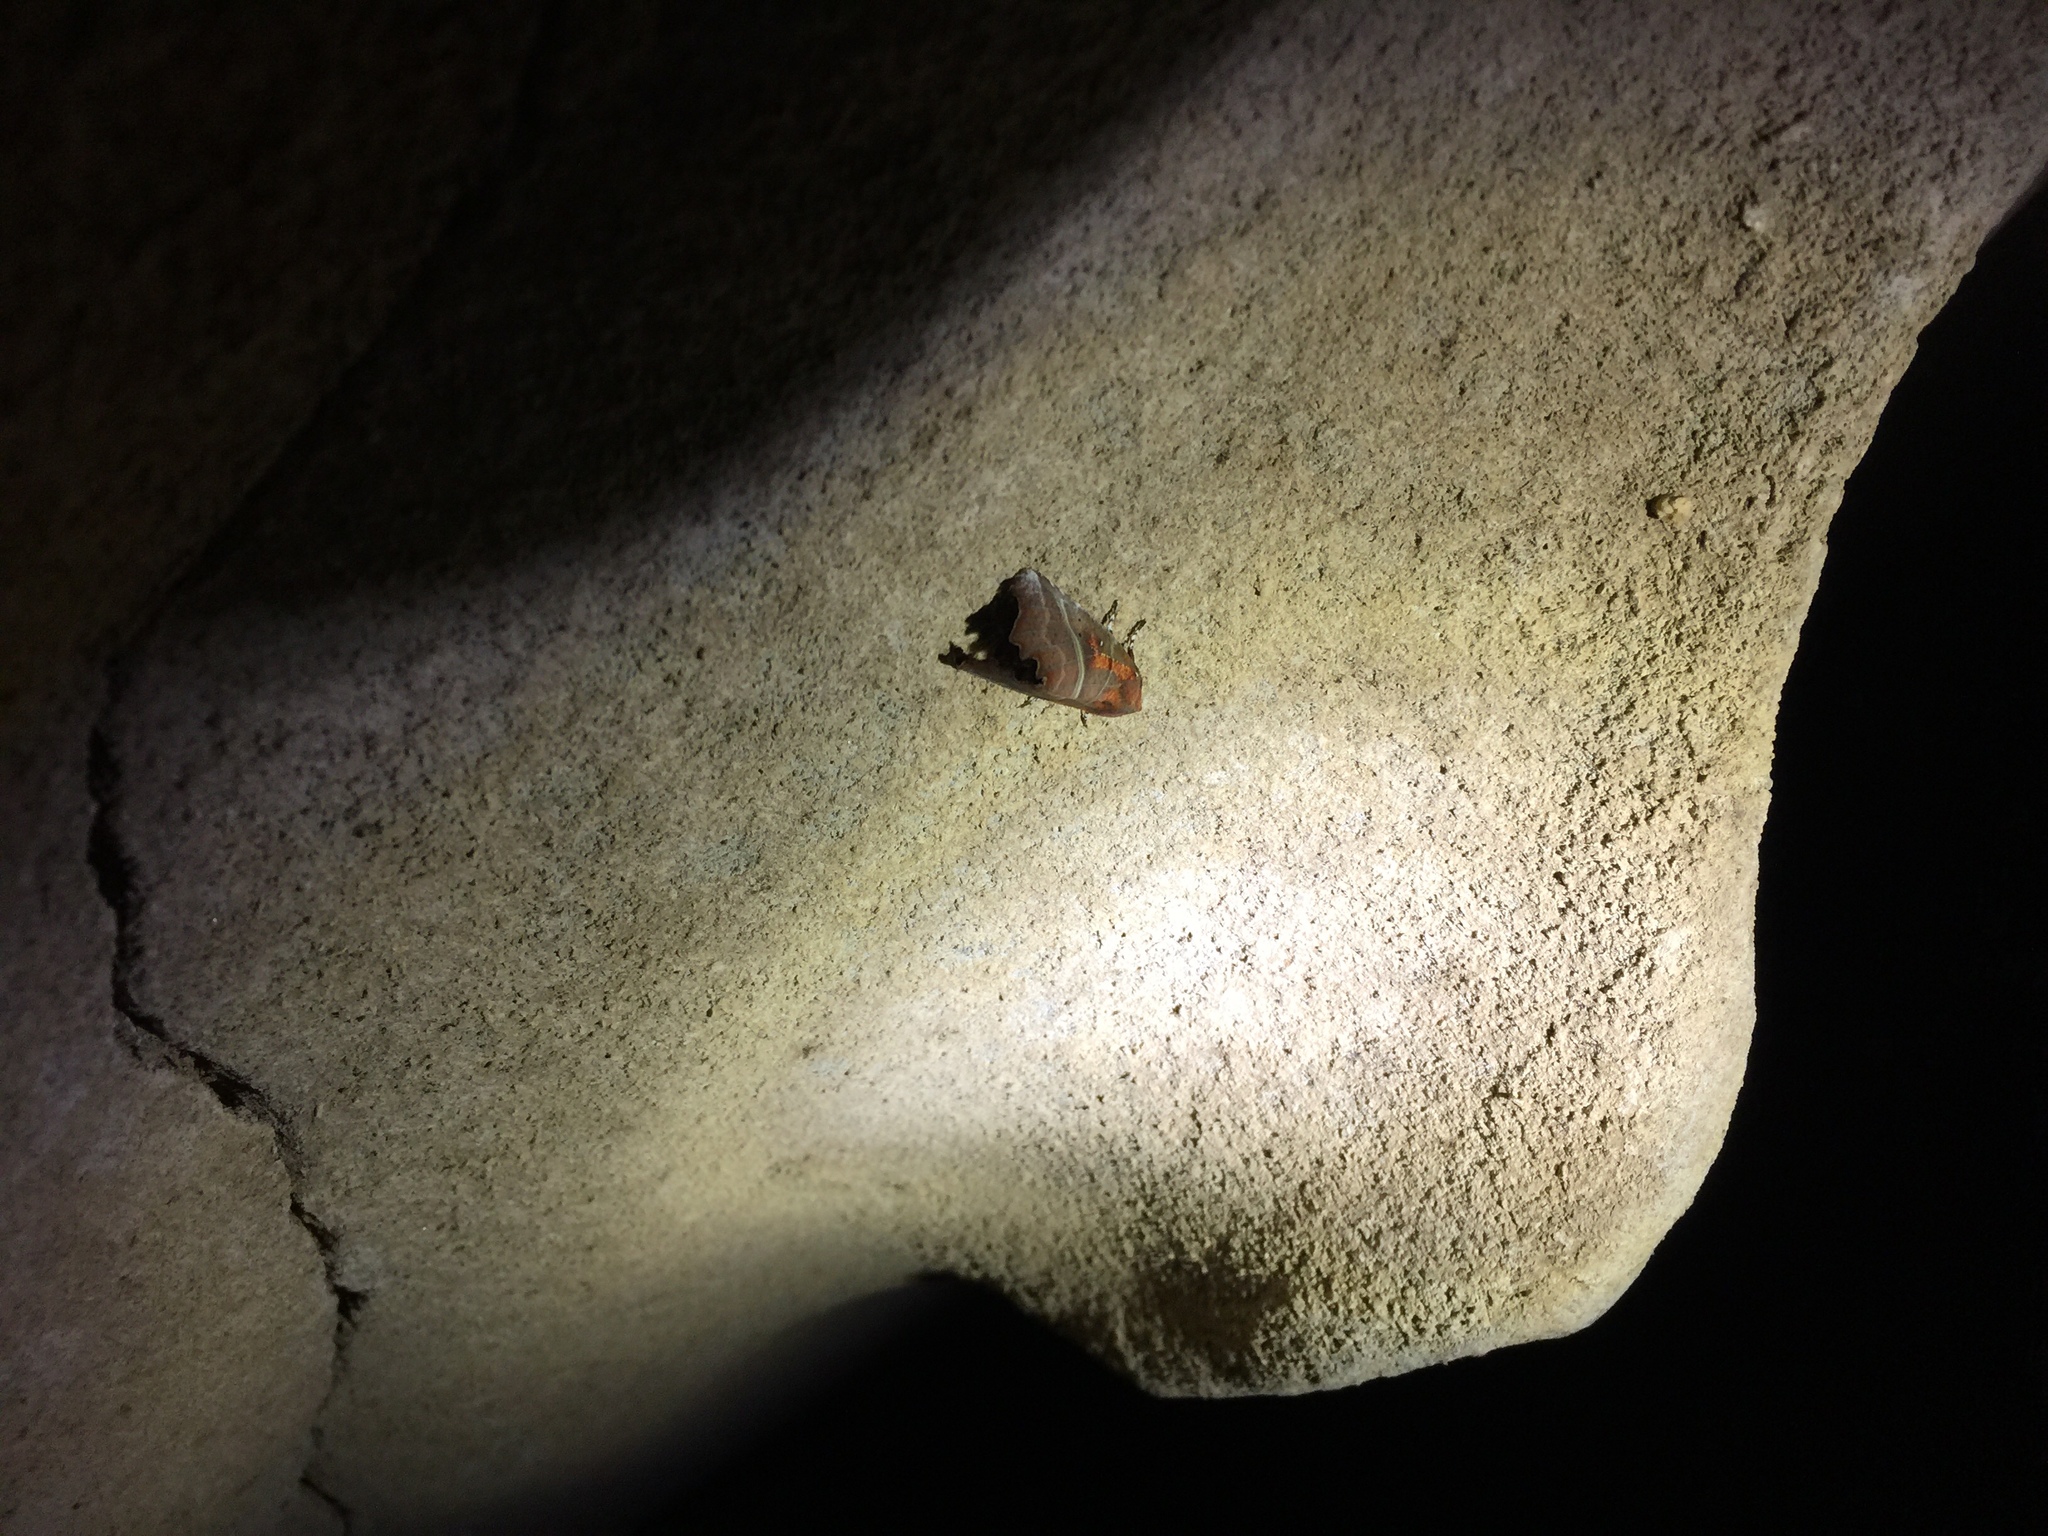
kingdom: Animalia
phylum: Arthropoda
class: Insecta
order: Lepidoptera
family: Erebidae
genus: Scoliopteryx
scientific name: Scoliopteryx libatrix
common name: Herald
